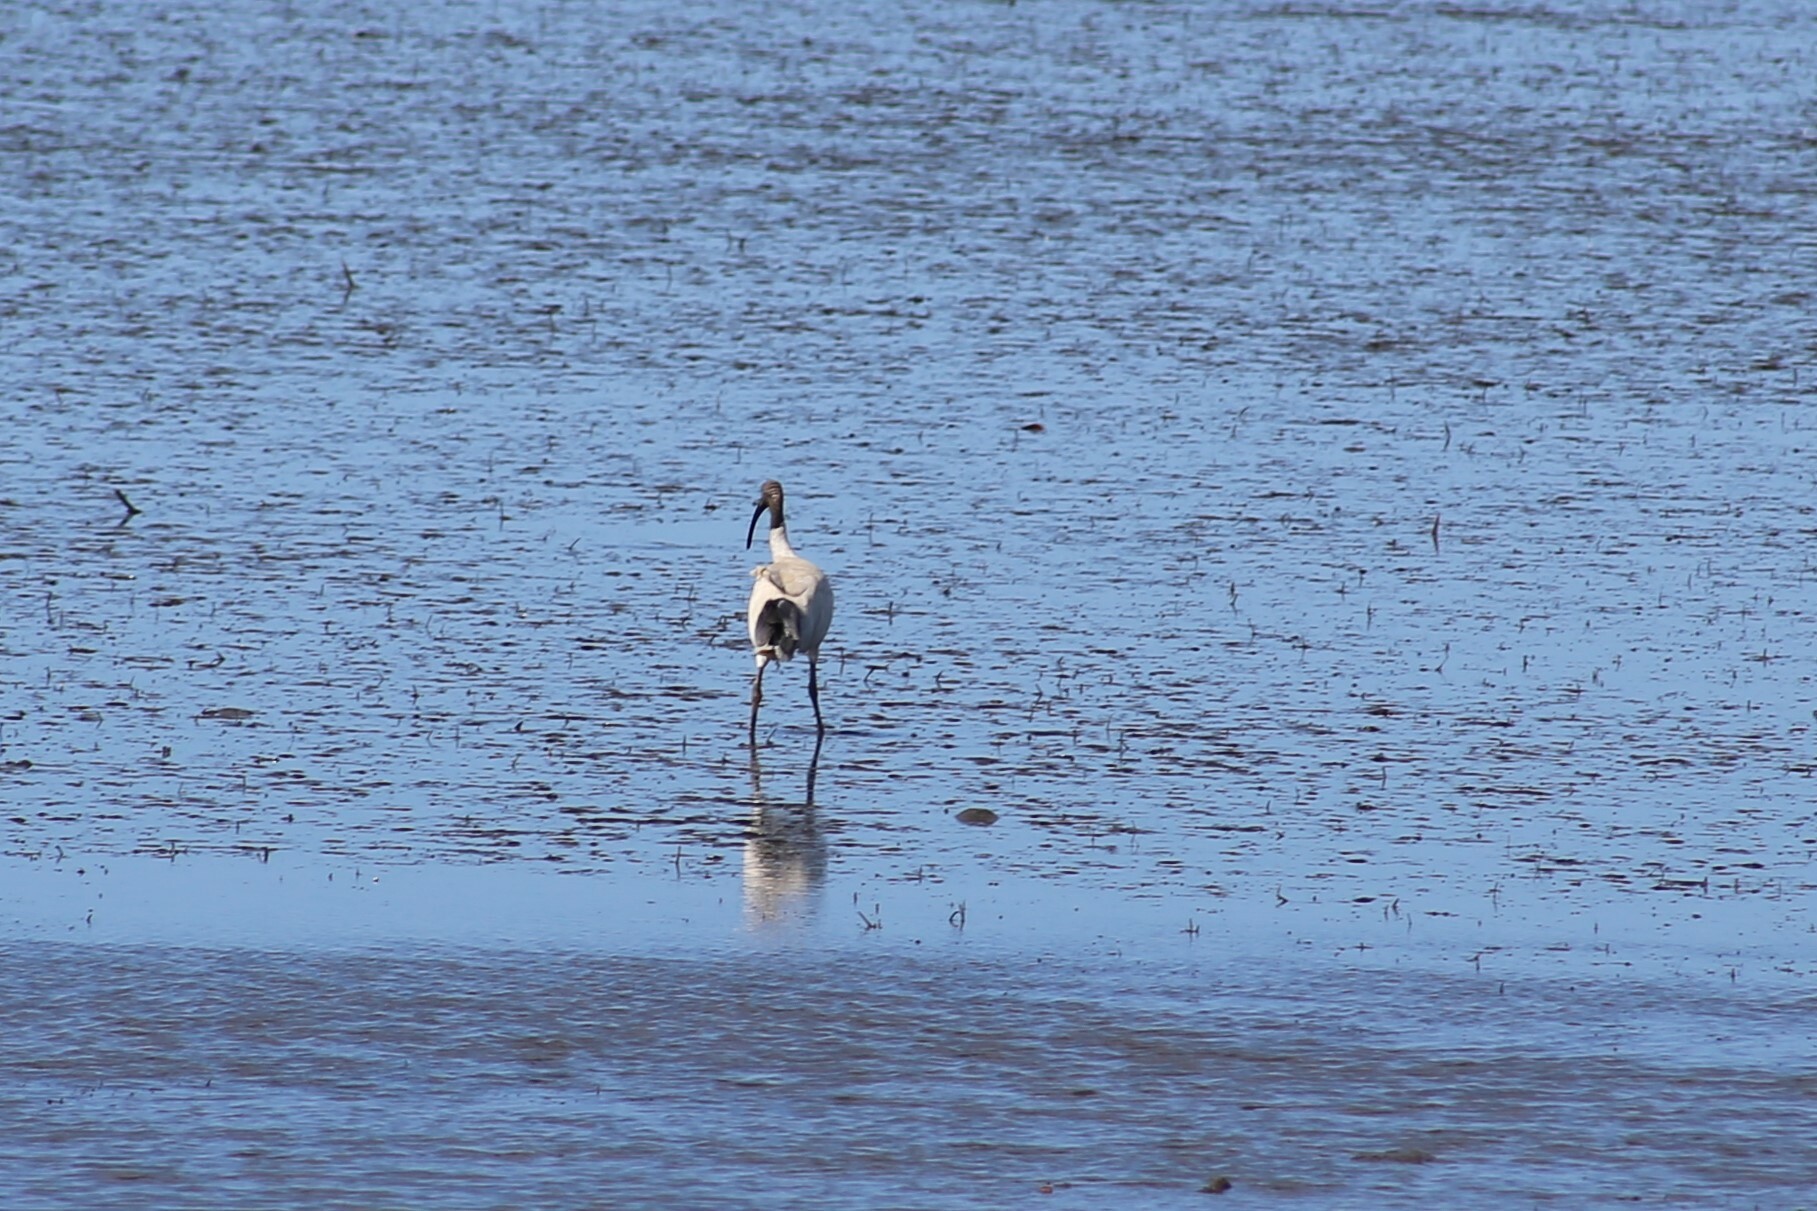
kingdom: Animalia
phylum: Chordata
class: Aves
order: Pelecaniformes
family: Threskiornithidae
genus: Threskiornis
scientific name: Threskiornis molucca
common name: Australian white ibis
